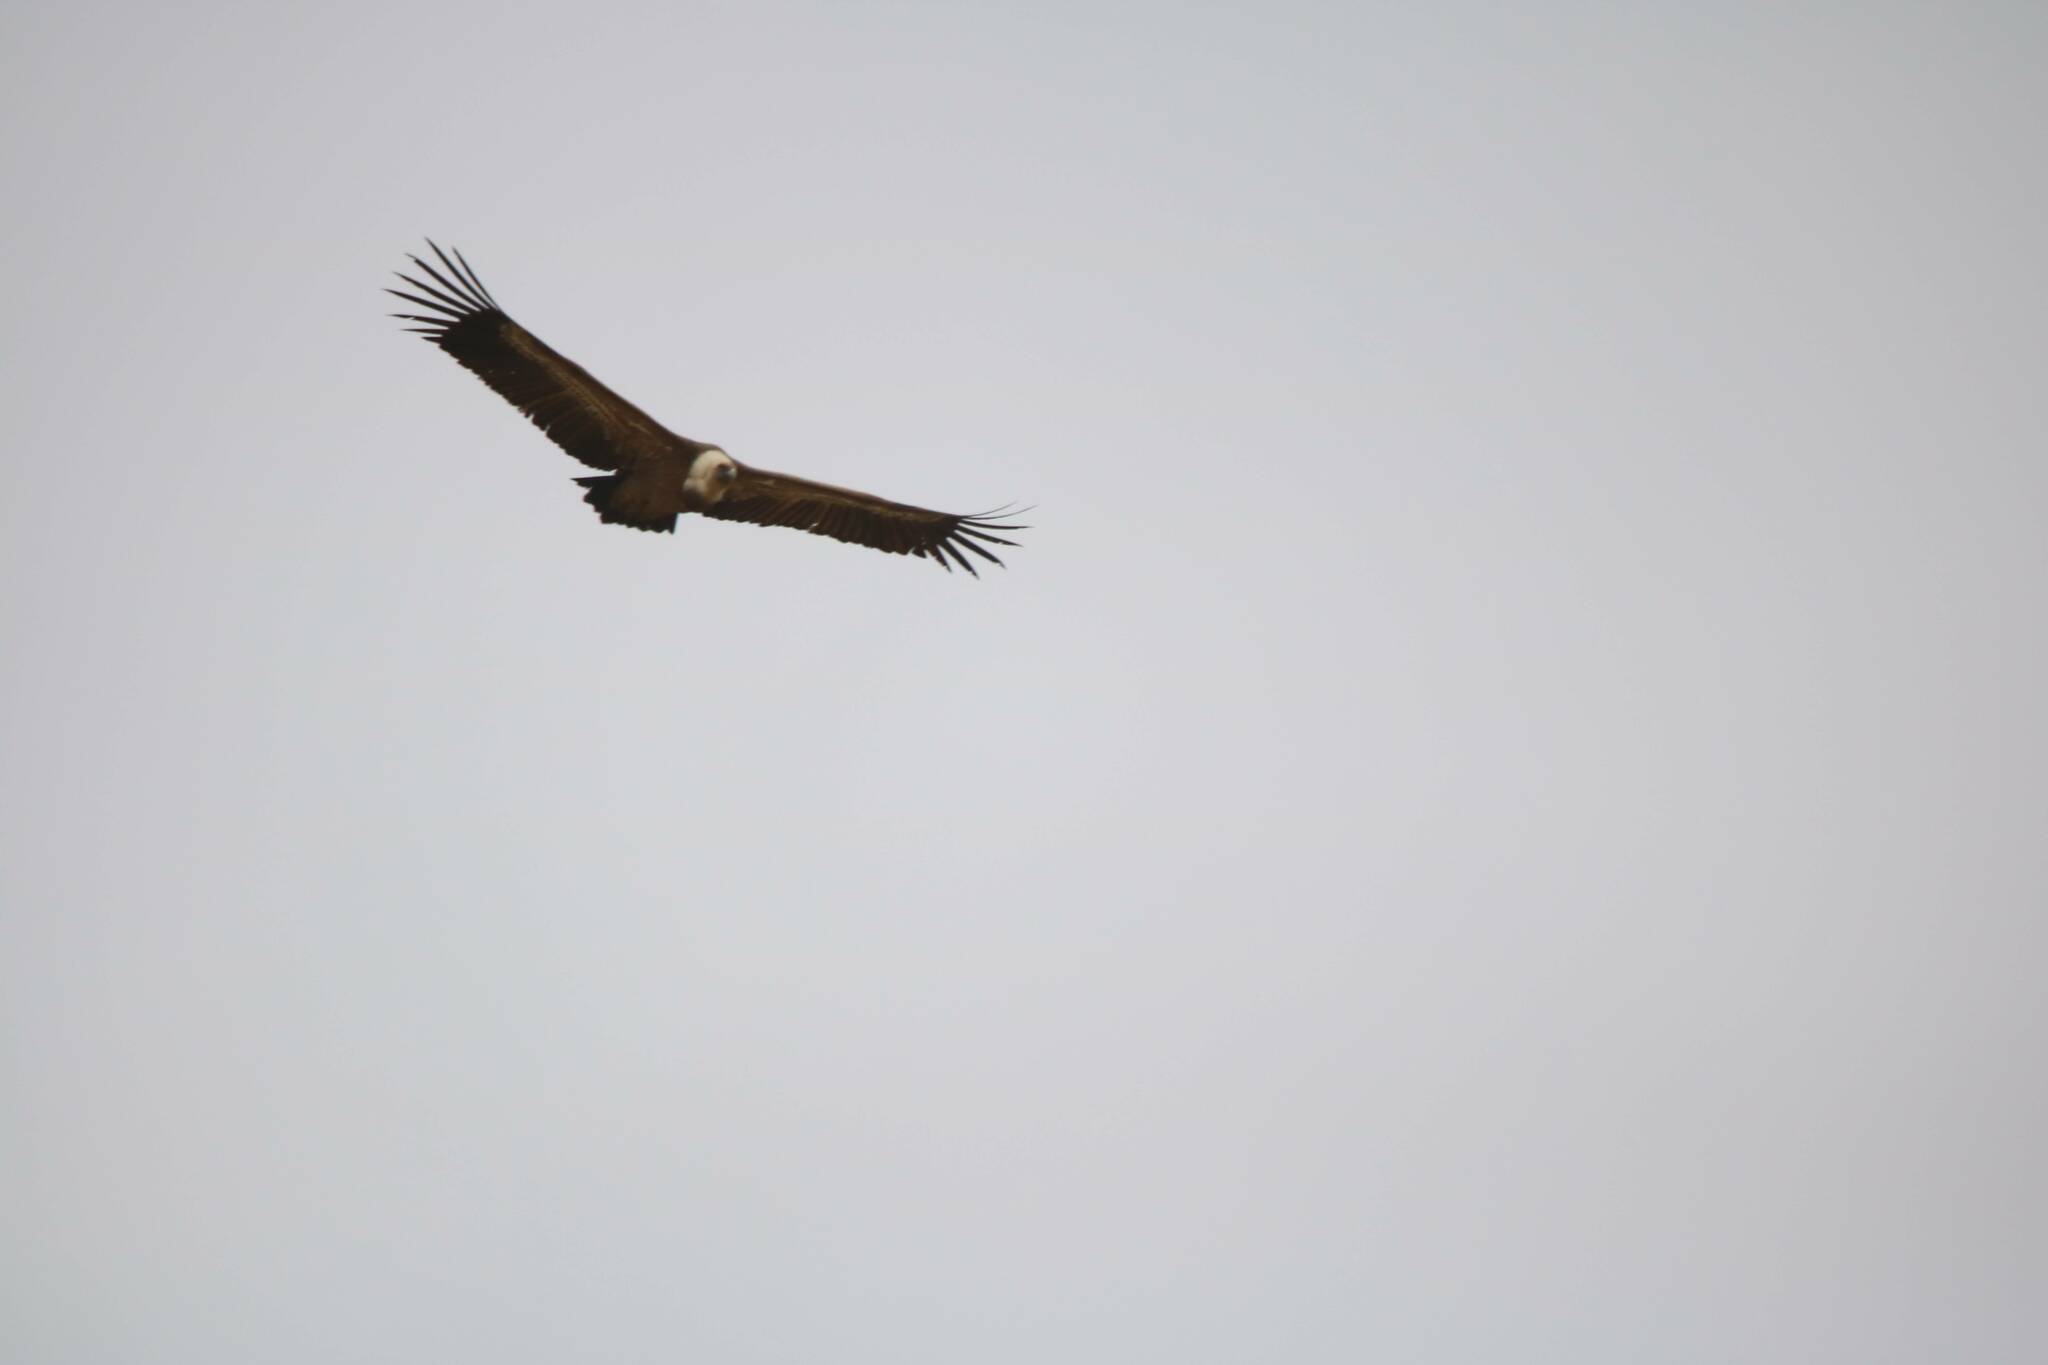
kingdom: Animalia
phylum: Chordata
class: Aves
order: Accipitriformes
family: Accipitridae
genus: Gyps
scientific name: Gyps fulvus
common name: Griffon vulture
